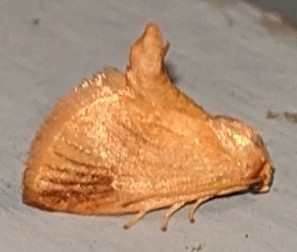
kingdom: Animalia
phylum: Arthropoda
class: Insecta
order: Lepidoptera
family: Limacodidae
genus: Tortricidia
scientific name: Tortricidia testacea
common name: Early button slug moth
